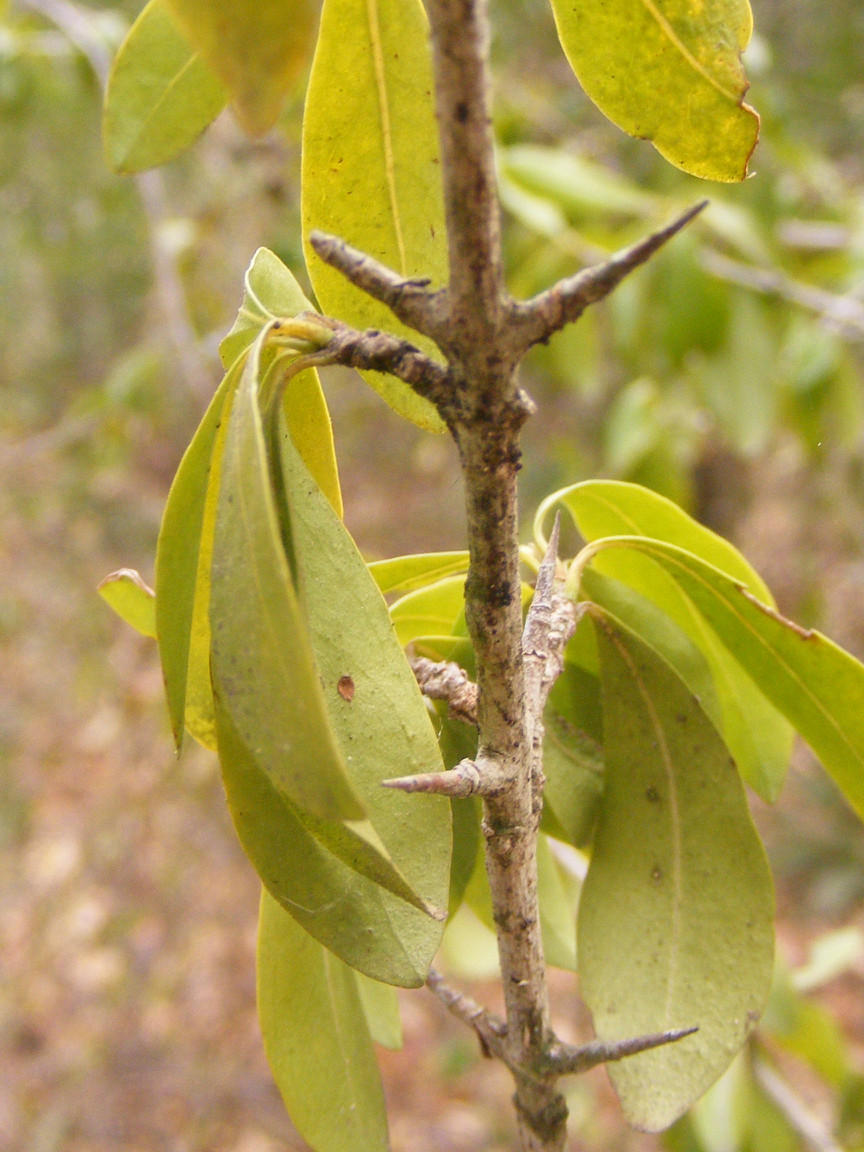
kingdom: Plantae
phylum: Tracheophyta
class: Magnoliopsida
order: Gentianales
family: Rubiaceae
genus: Hyperacanthus
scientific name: Hyperacanthus amoenus
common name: Spiny gardenia
